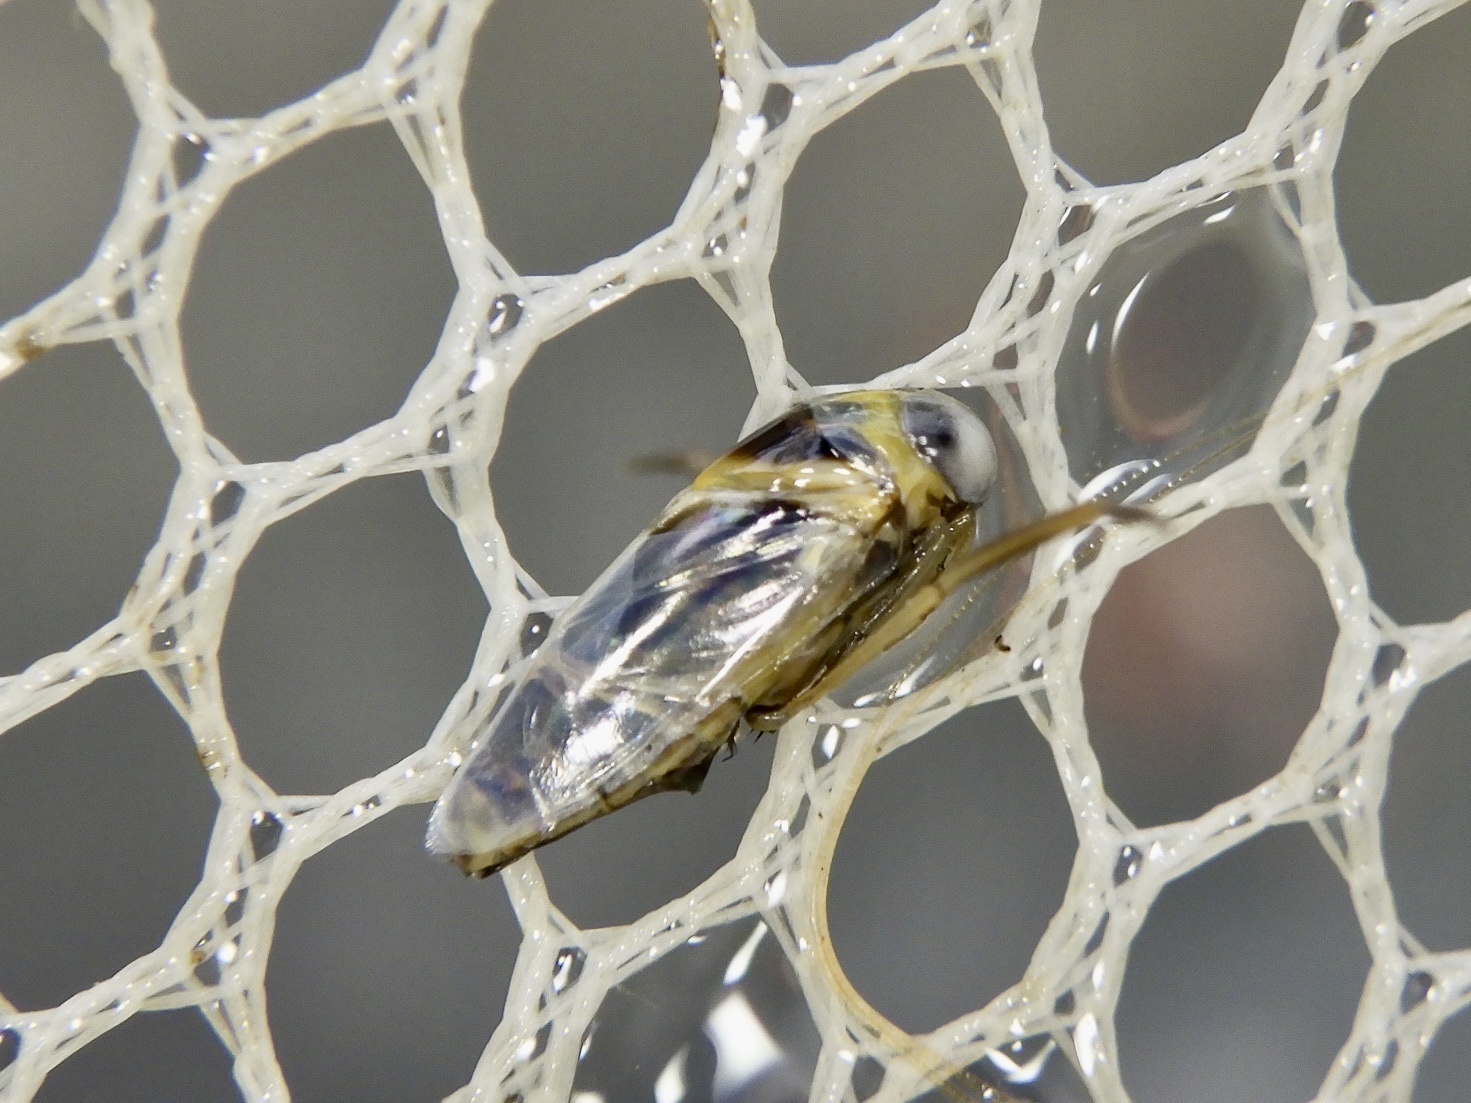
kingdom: Animalia
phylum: Arthropoda
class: Insecta
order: Hemiptera
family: Notonectidae
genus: Anisops
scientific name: Anisops ogasawarensis
